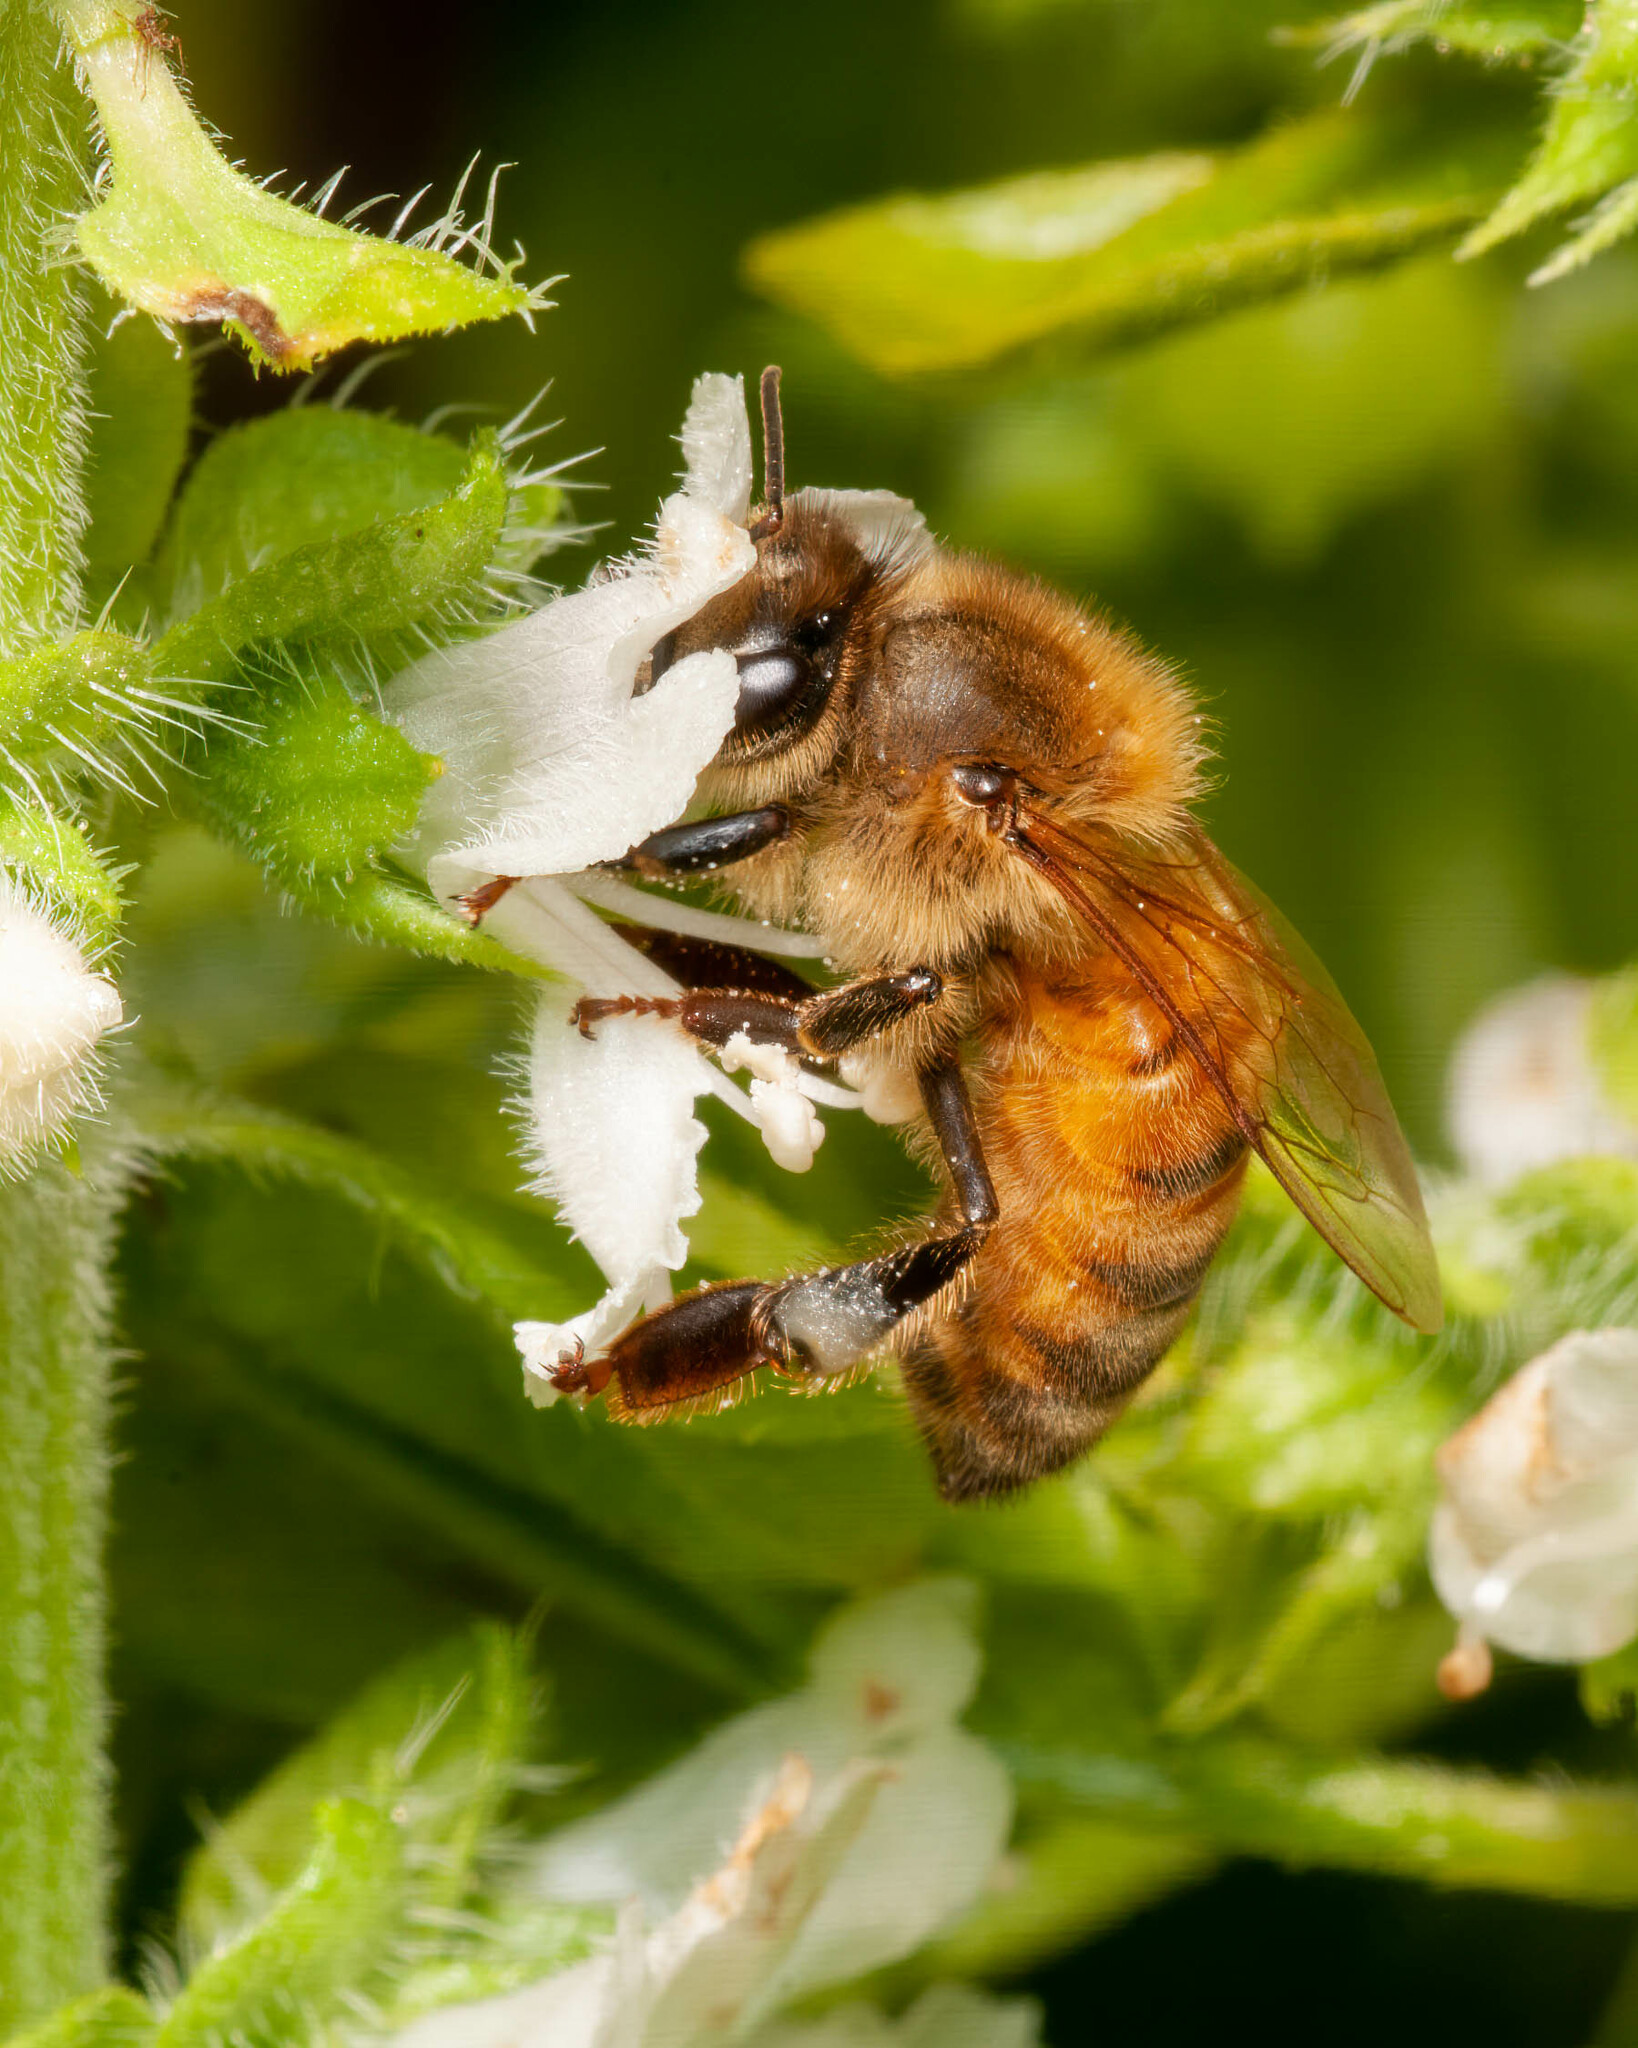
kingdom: Animalia
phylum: Arthropoda
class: Insecta
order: Hymenoptera
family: Apidae
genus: Apis
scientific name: Apis mellifera
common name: Honey bee
